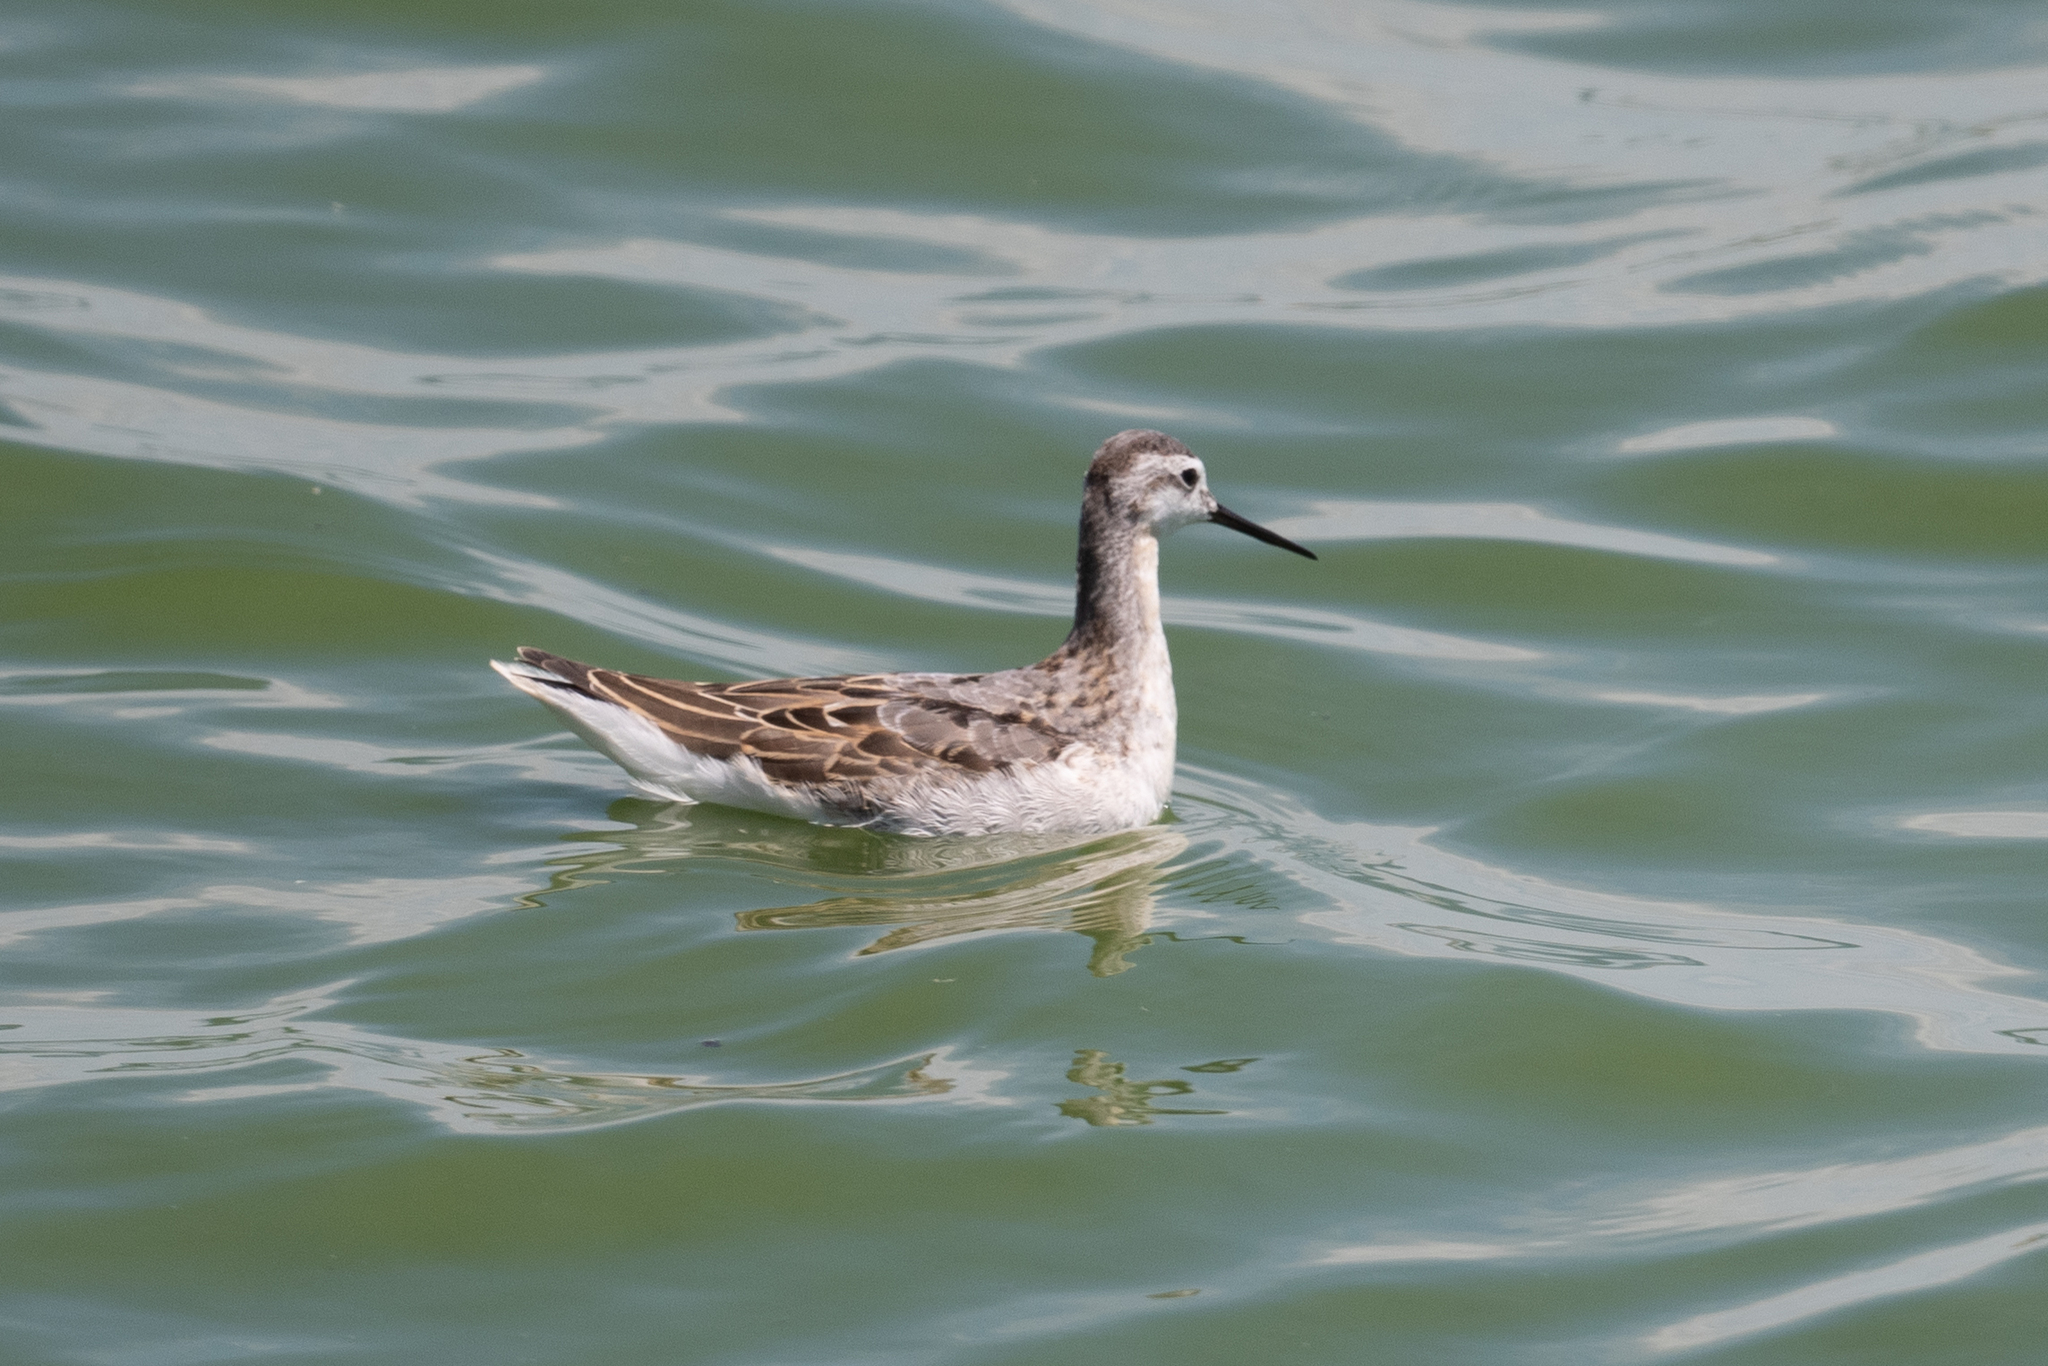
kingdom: Animalia
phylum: Chordata
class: Aves
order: Charadriiformes
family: Scolopacidae
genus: Phalaropus
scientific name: Phalaropus tricolor
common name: Wilson's phalarope
